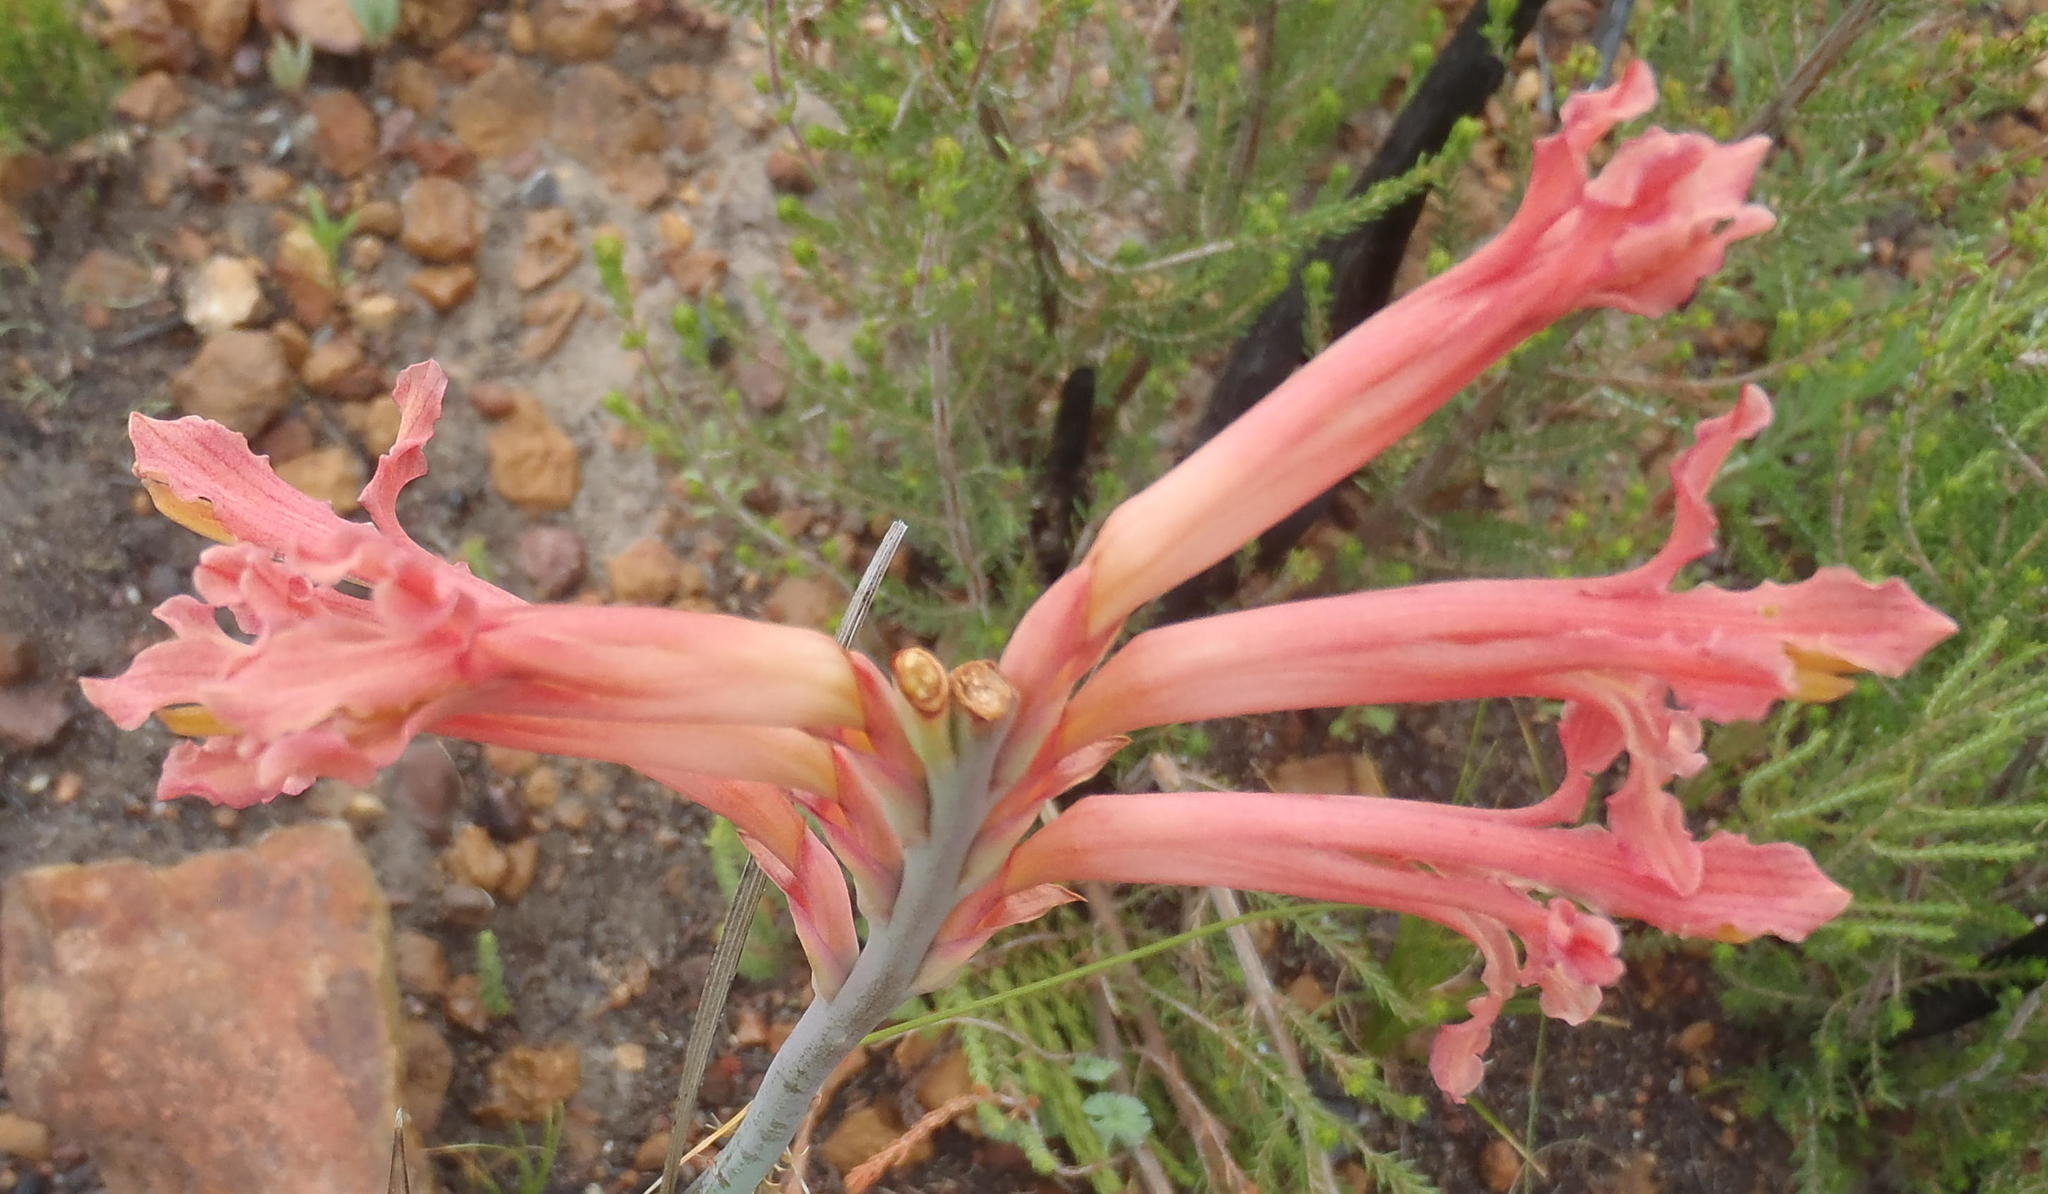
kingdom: Plantae
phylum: Tracheophyta
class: Liliopsida
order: Asparagales
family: Iridaceae
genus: Tritoniopsis
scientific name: Tritoniopsis antholyza
